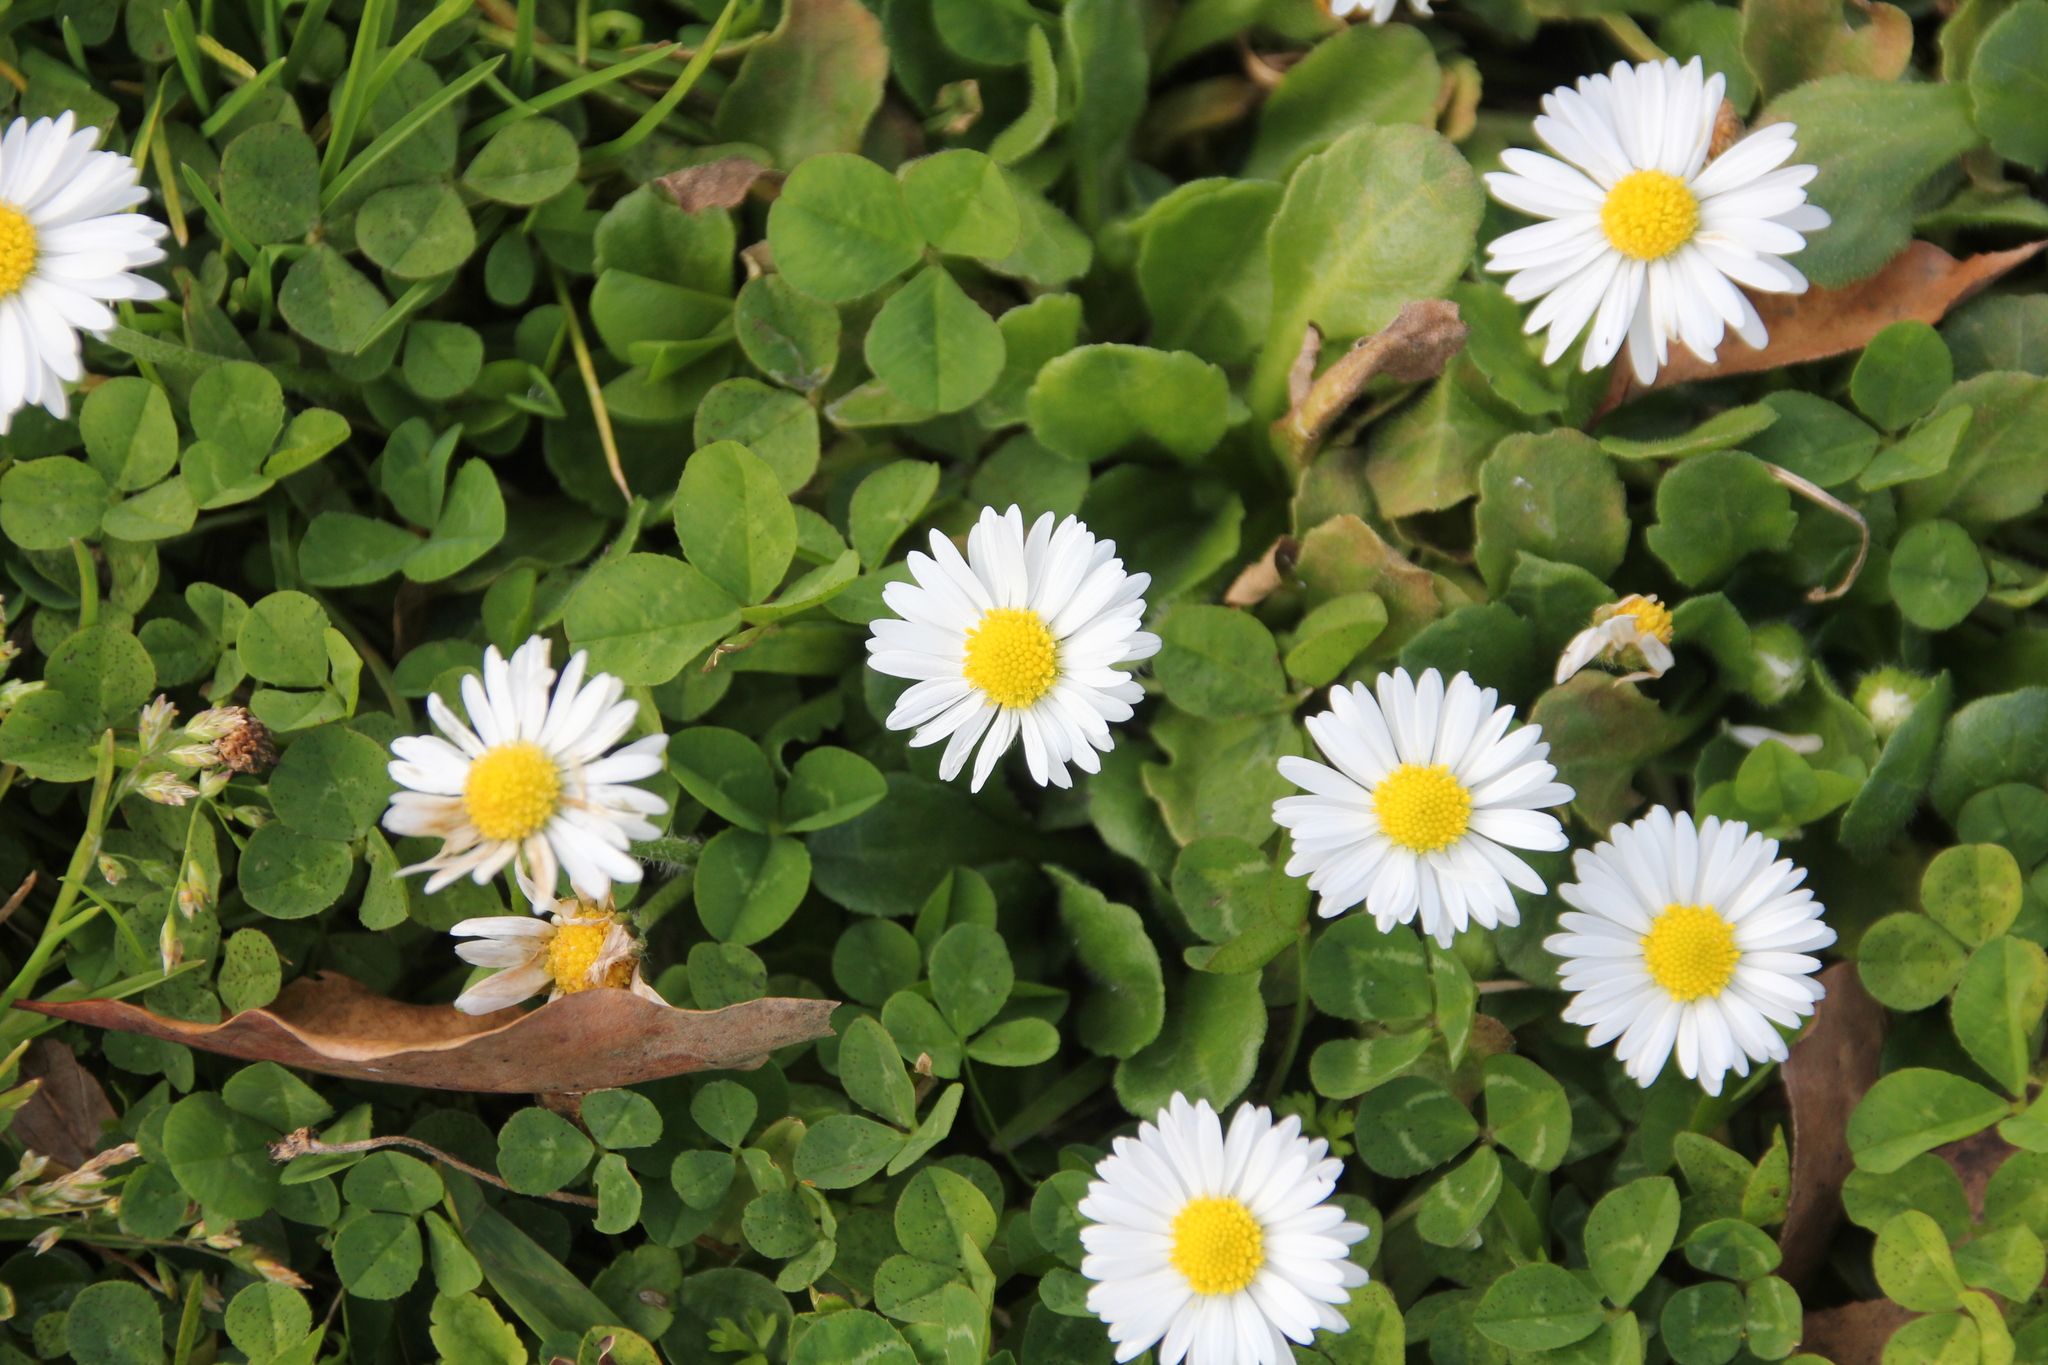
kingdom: Plantae
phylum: Tracheophyta
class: Magnoliopsida
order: Asterales
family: Asteraceae
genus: Bellis
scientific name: Bellis perennis
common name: Lawndaisy
